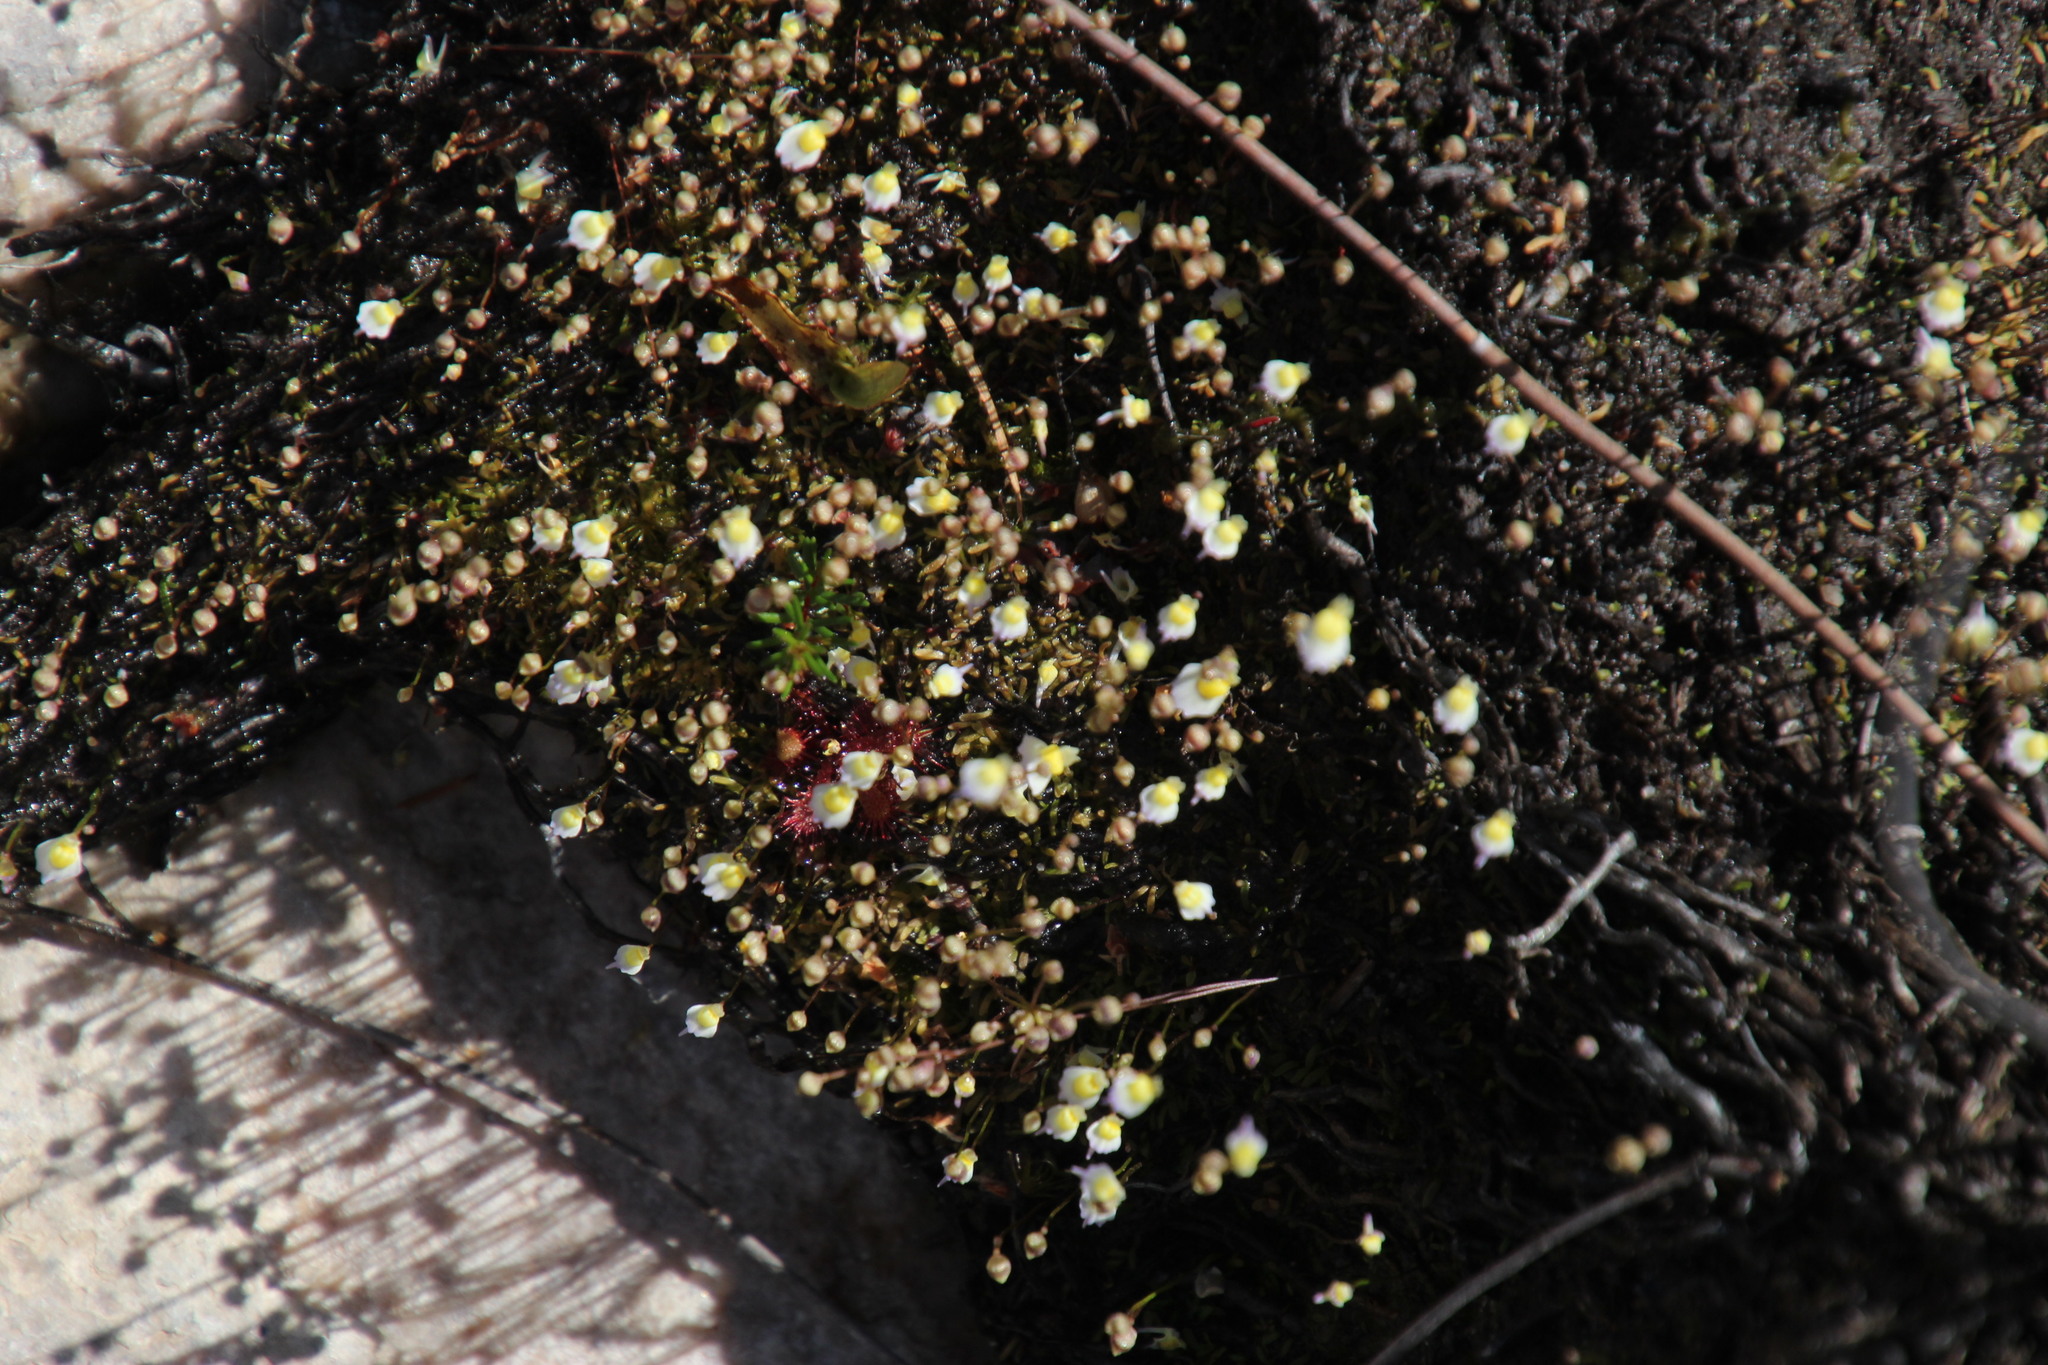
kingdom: Plantae
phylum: Tracheophyta
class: Magnoliopsida
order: Lamiales
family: Lentibulariaceae
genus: Utricularia
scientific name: Utricularia bisquamata
